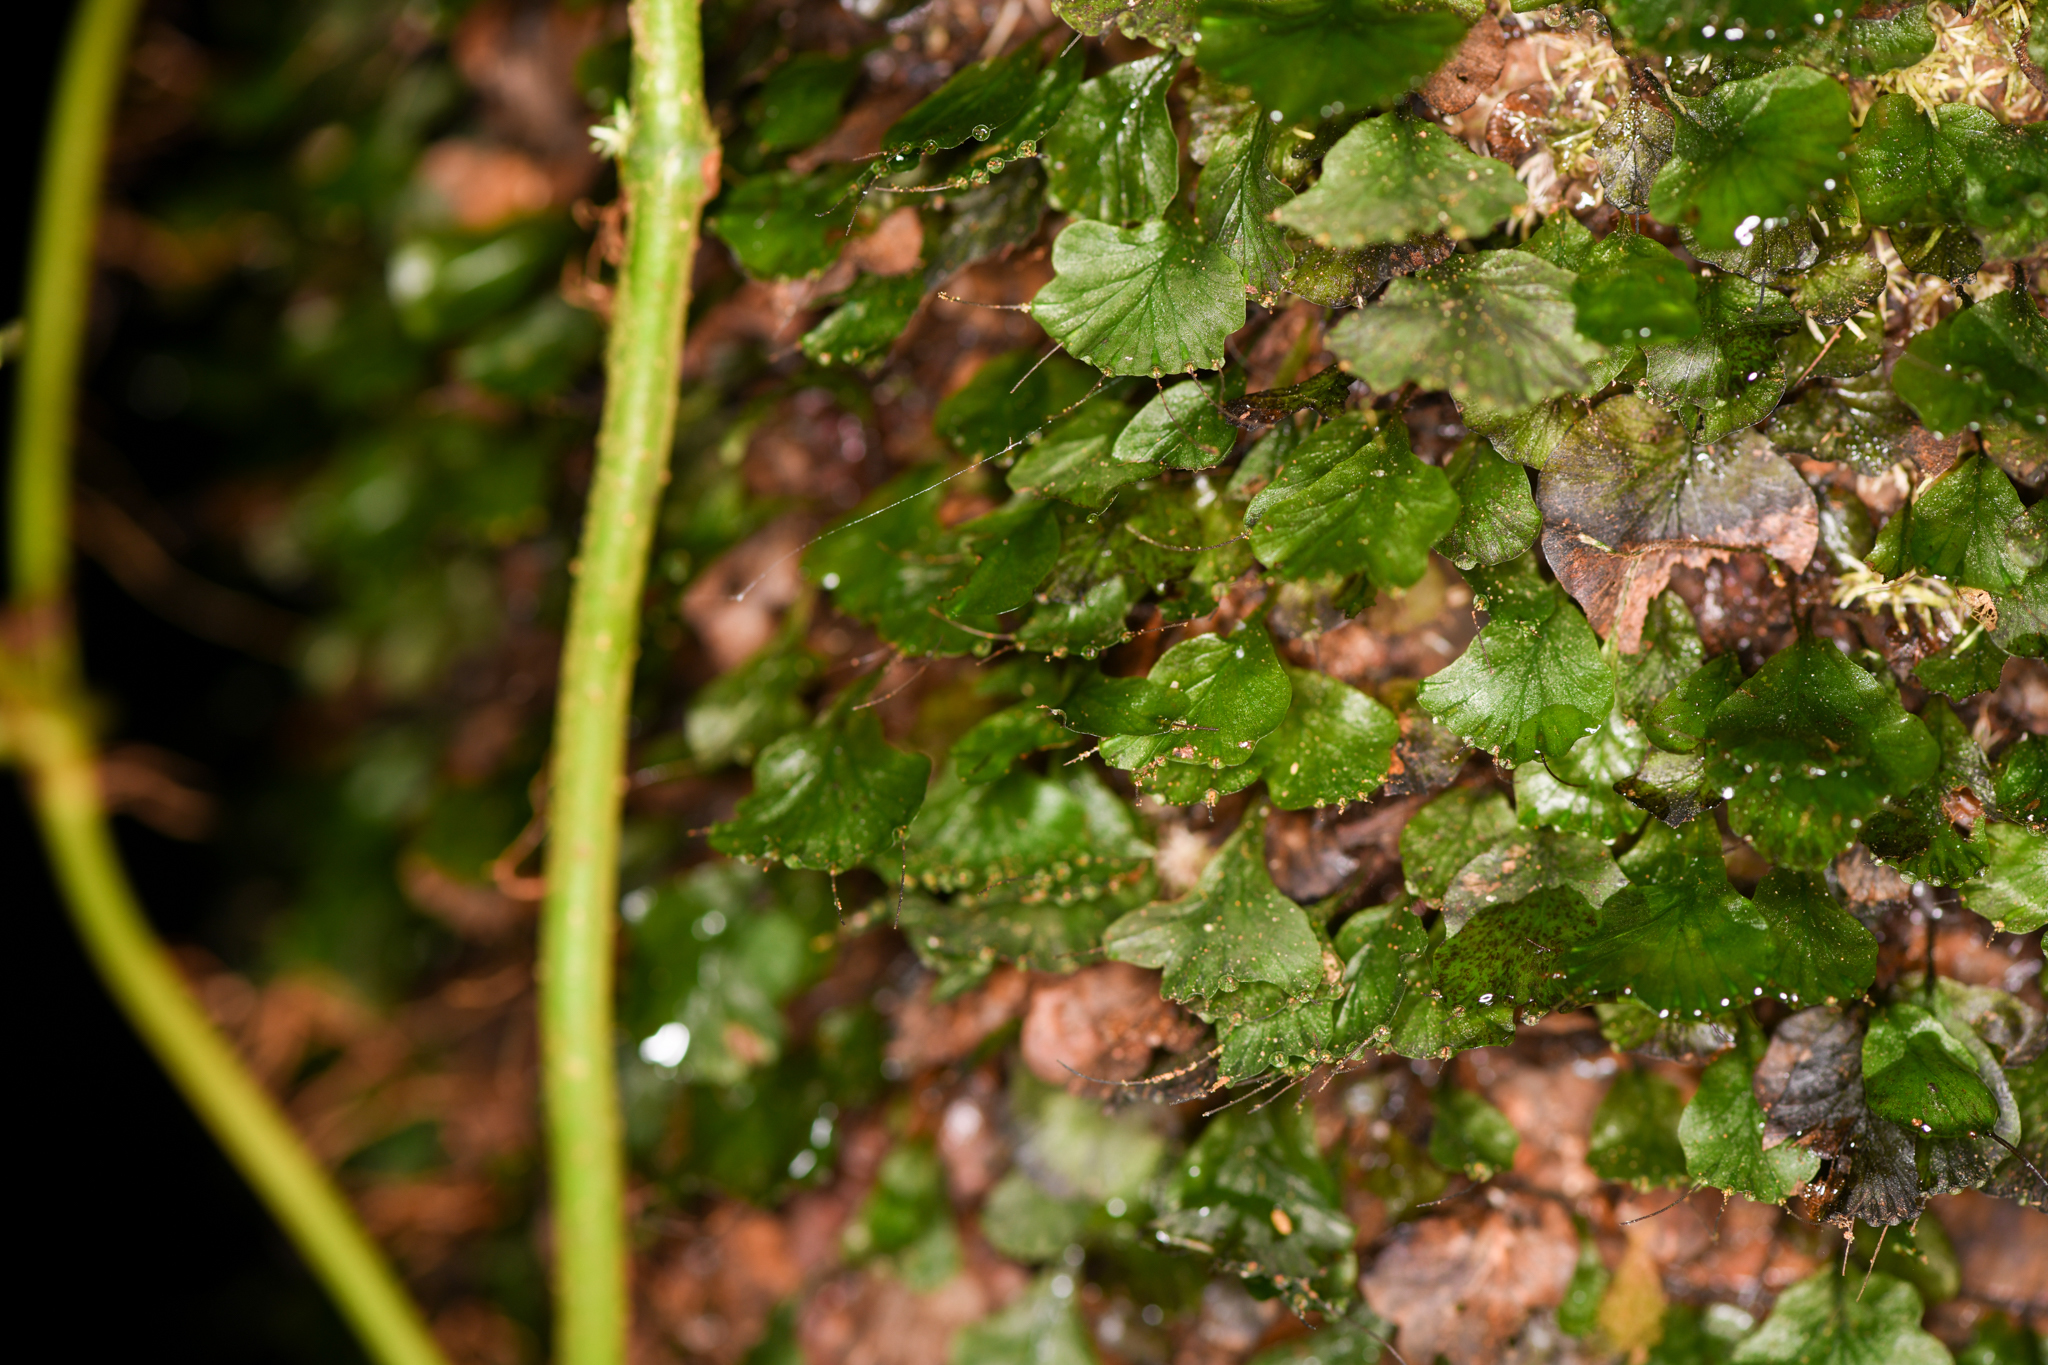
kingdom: Plantae
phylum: Tracheophyta
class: Polypodiopsida
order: Hymenophyllales
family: Hymenophyllaceae
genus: Didymoglossum
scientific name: Didymoglossum godmanii
